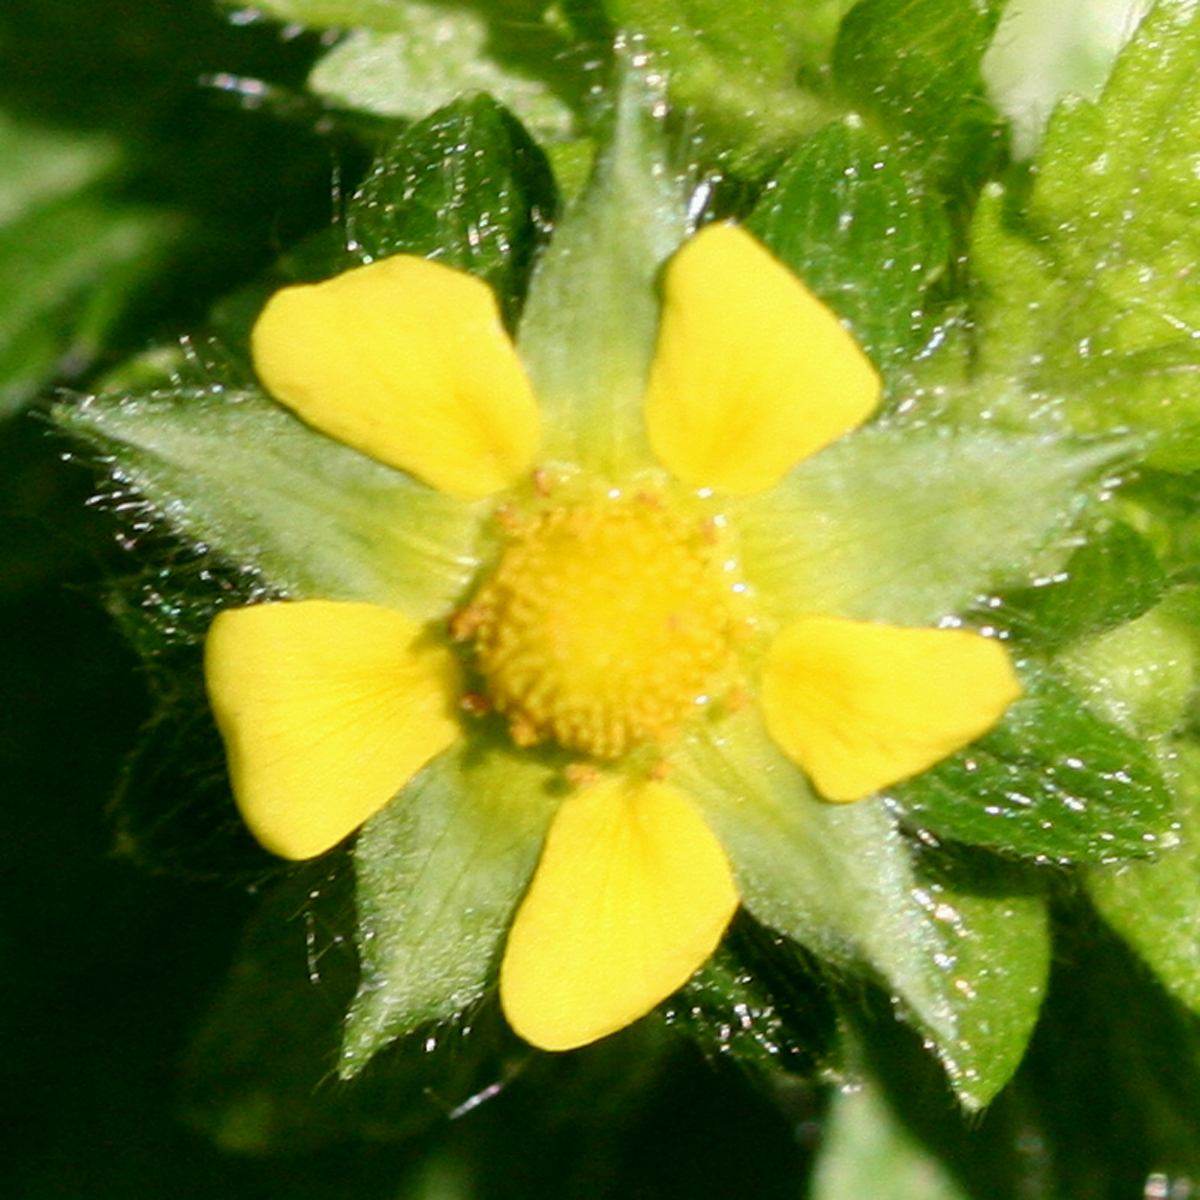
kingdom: Plantae
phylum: Tracheophyta
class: Magnoliopsida
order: Rosales
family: Rosaceae
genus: Potentilla
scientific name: Potentilla norvegica
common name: Ternate-leaved cinquefoil
